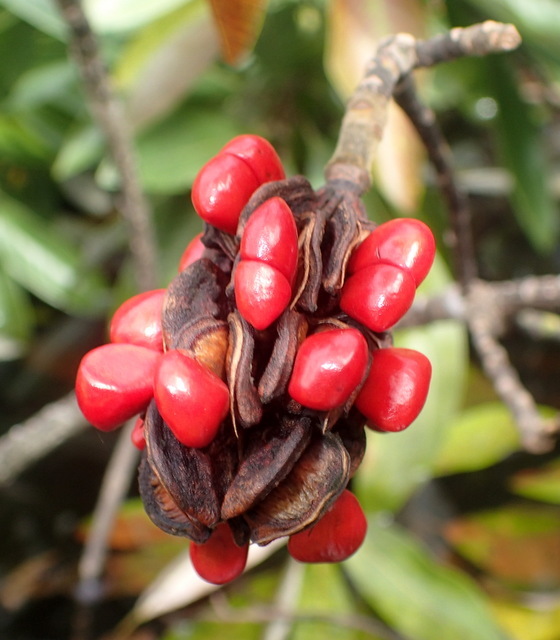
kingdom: Plantae
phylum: Tracheophyta
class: Magnoliopsida
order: Magnoliales
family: Magnoliaceae
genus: Magnolia
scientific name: Magnolia virginiana
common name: Swamp bay
